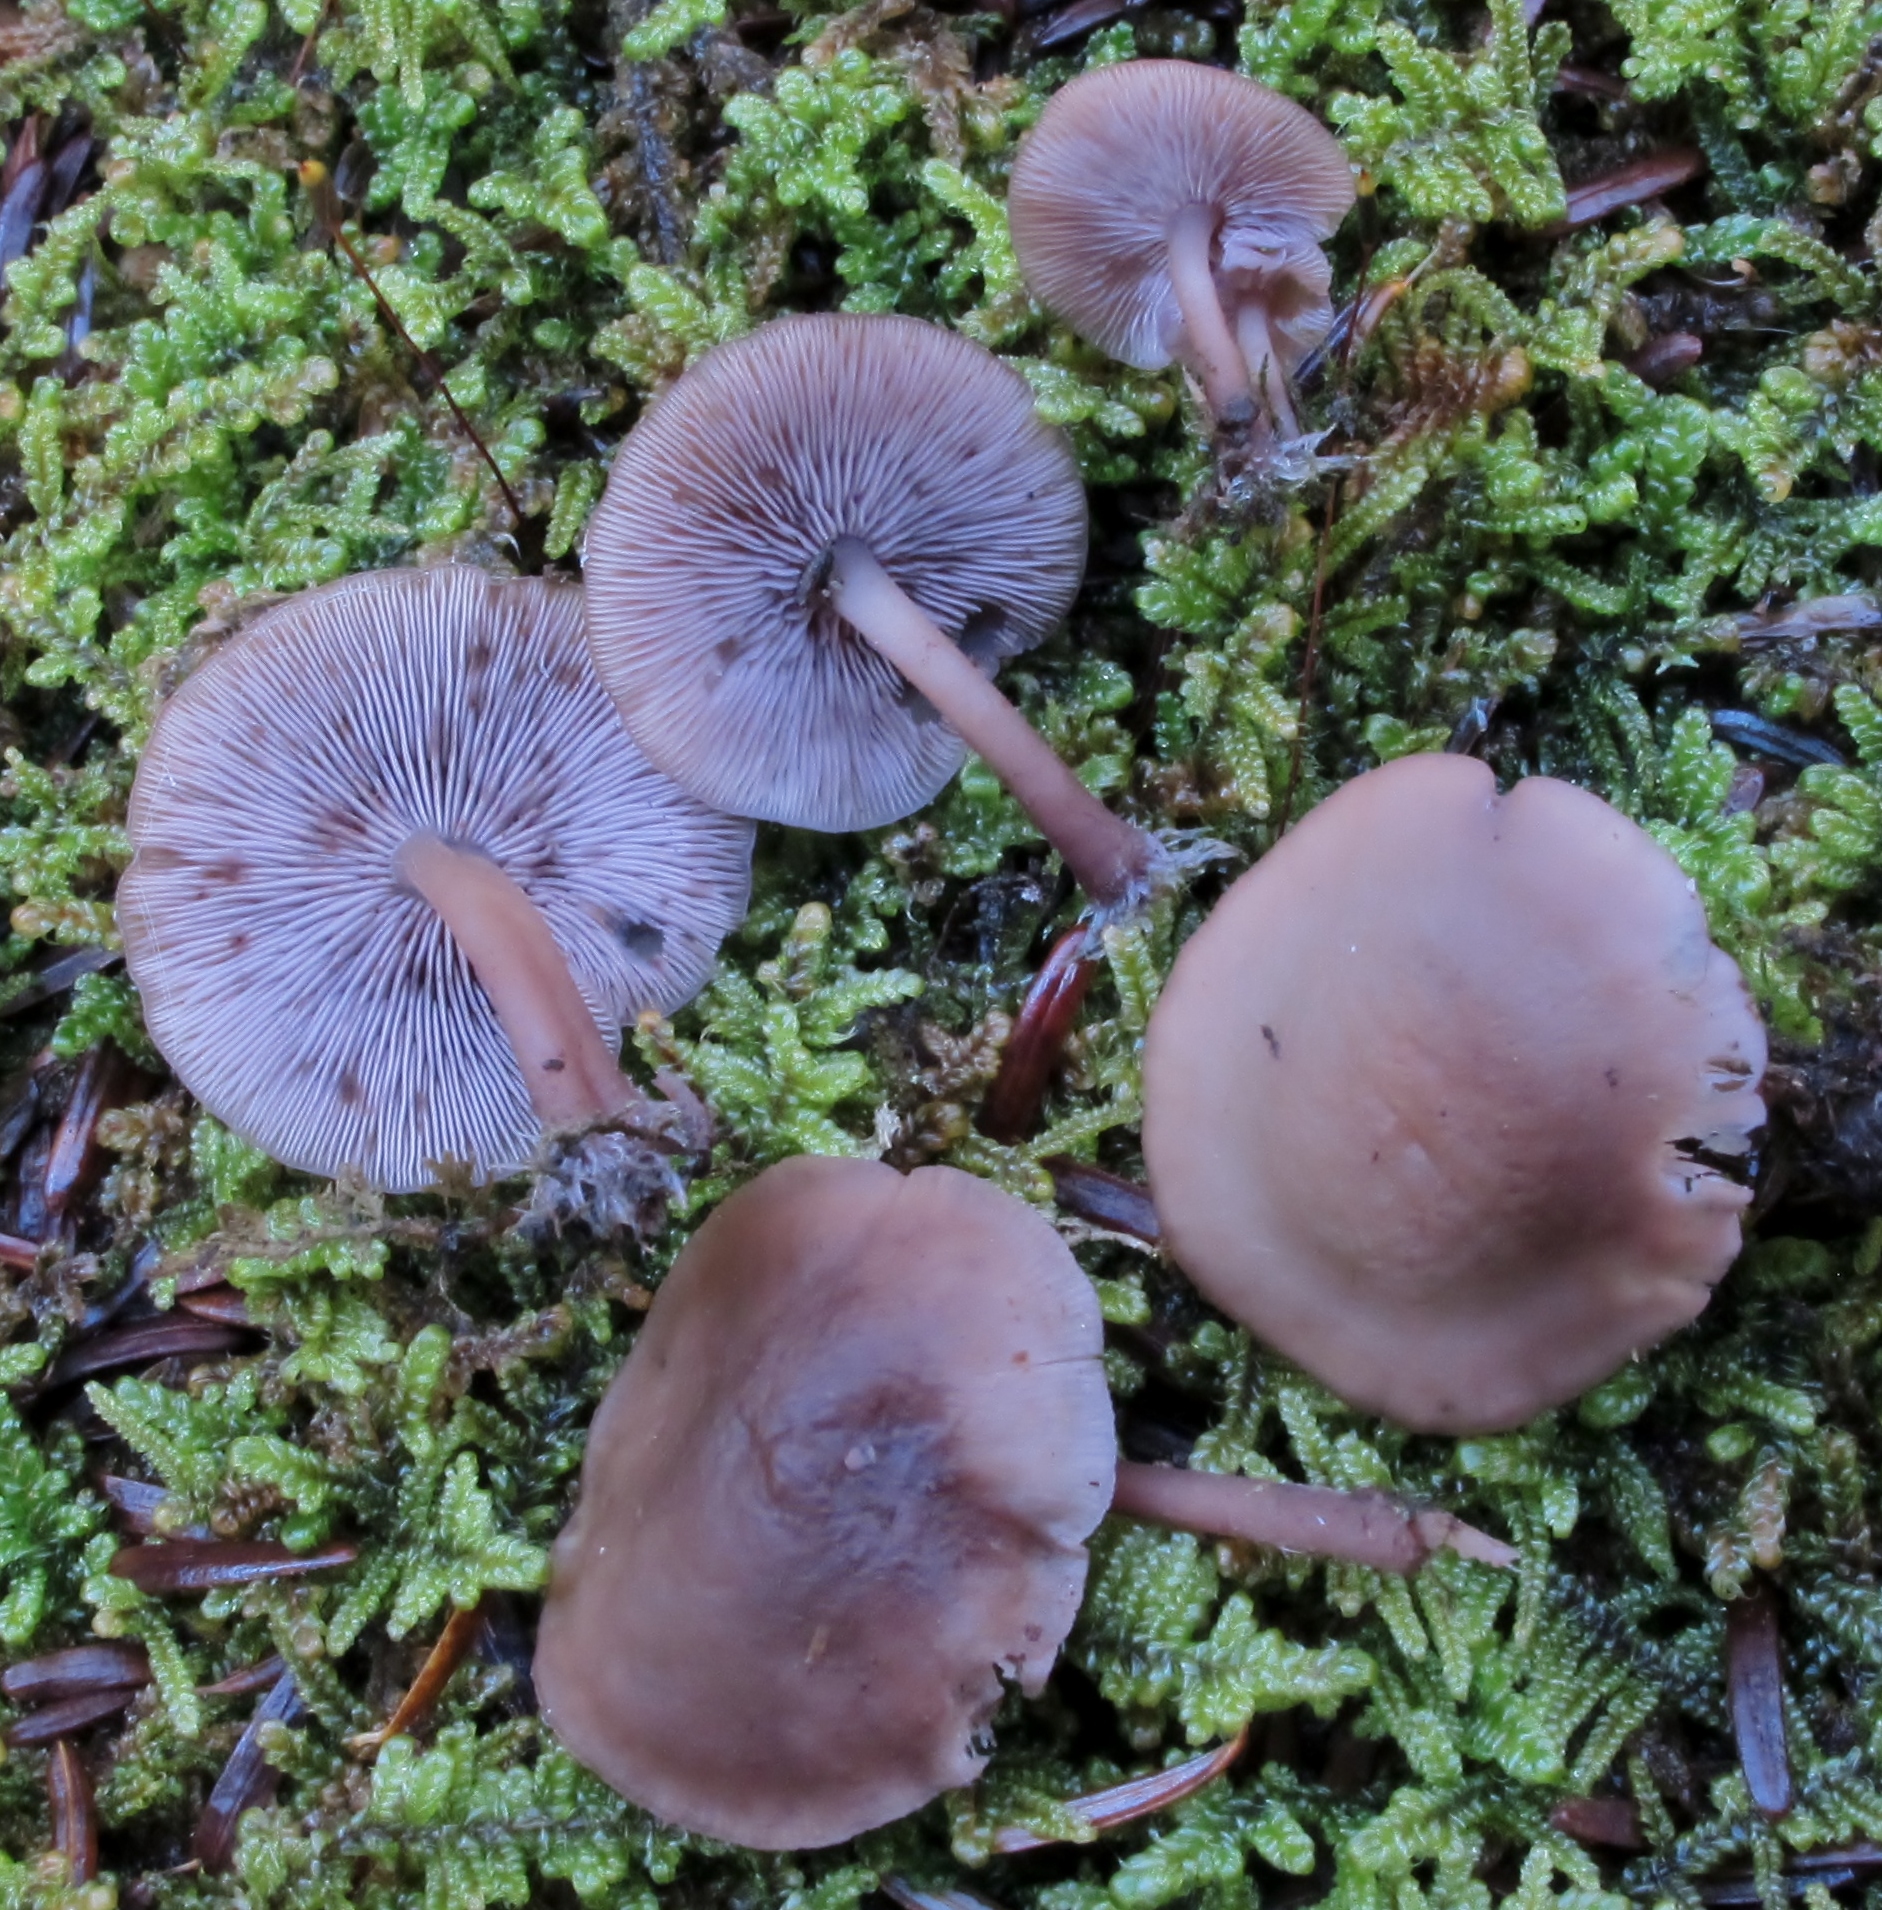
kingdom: Fungi
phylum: Basidiomycota
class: Agaricomycetes
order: Agaricales
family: Marasmiaceae
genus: Baeospora
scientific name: Baeospora myriadophylla
